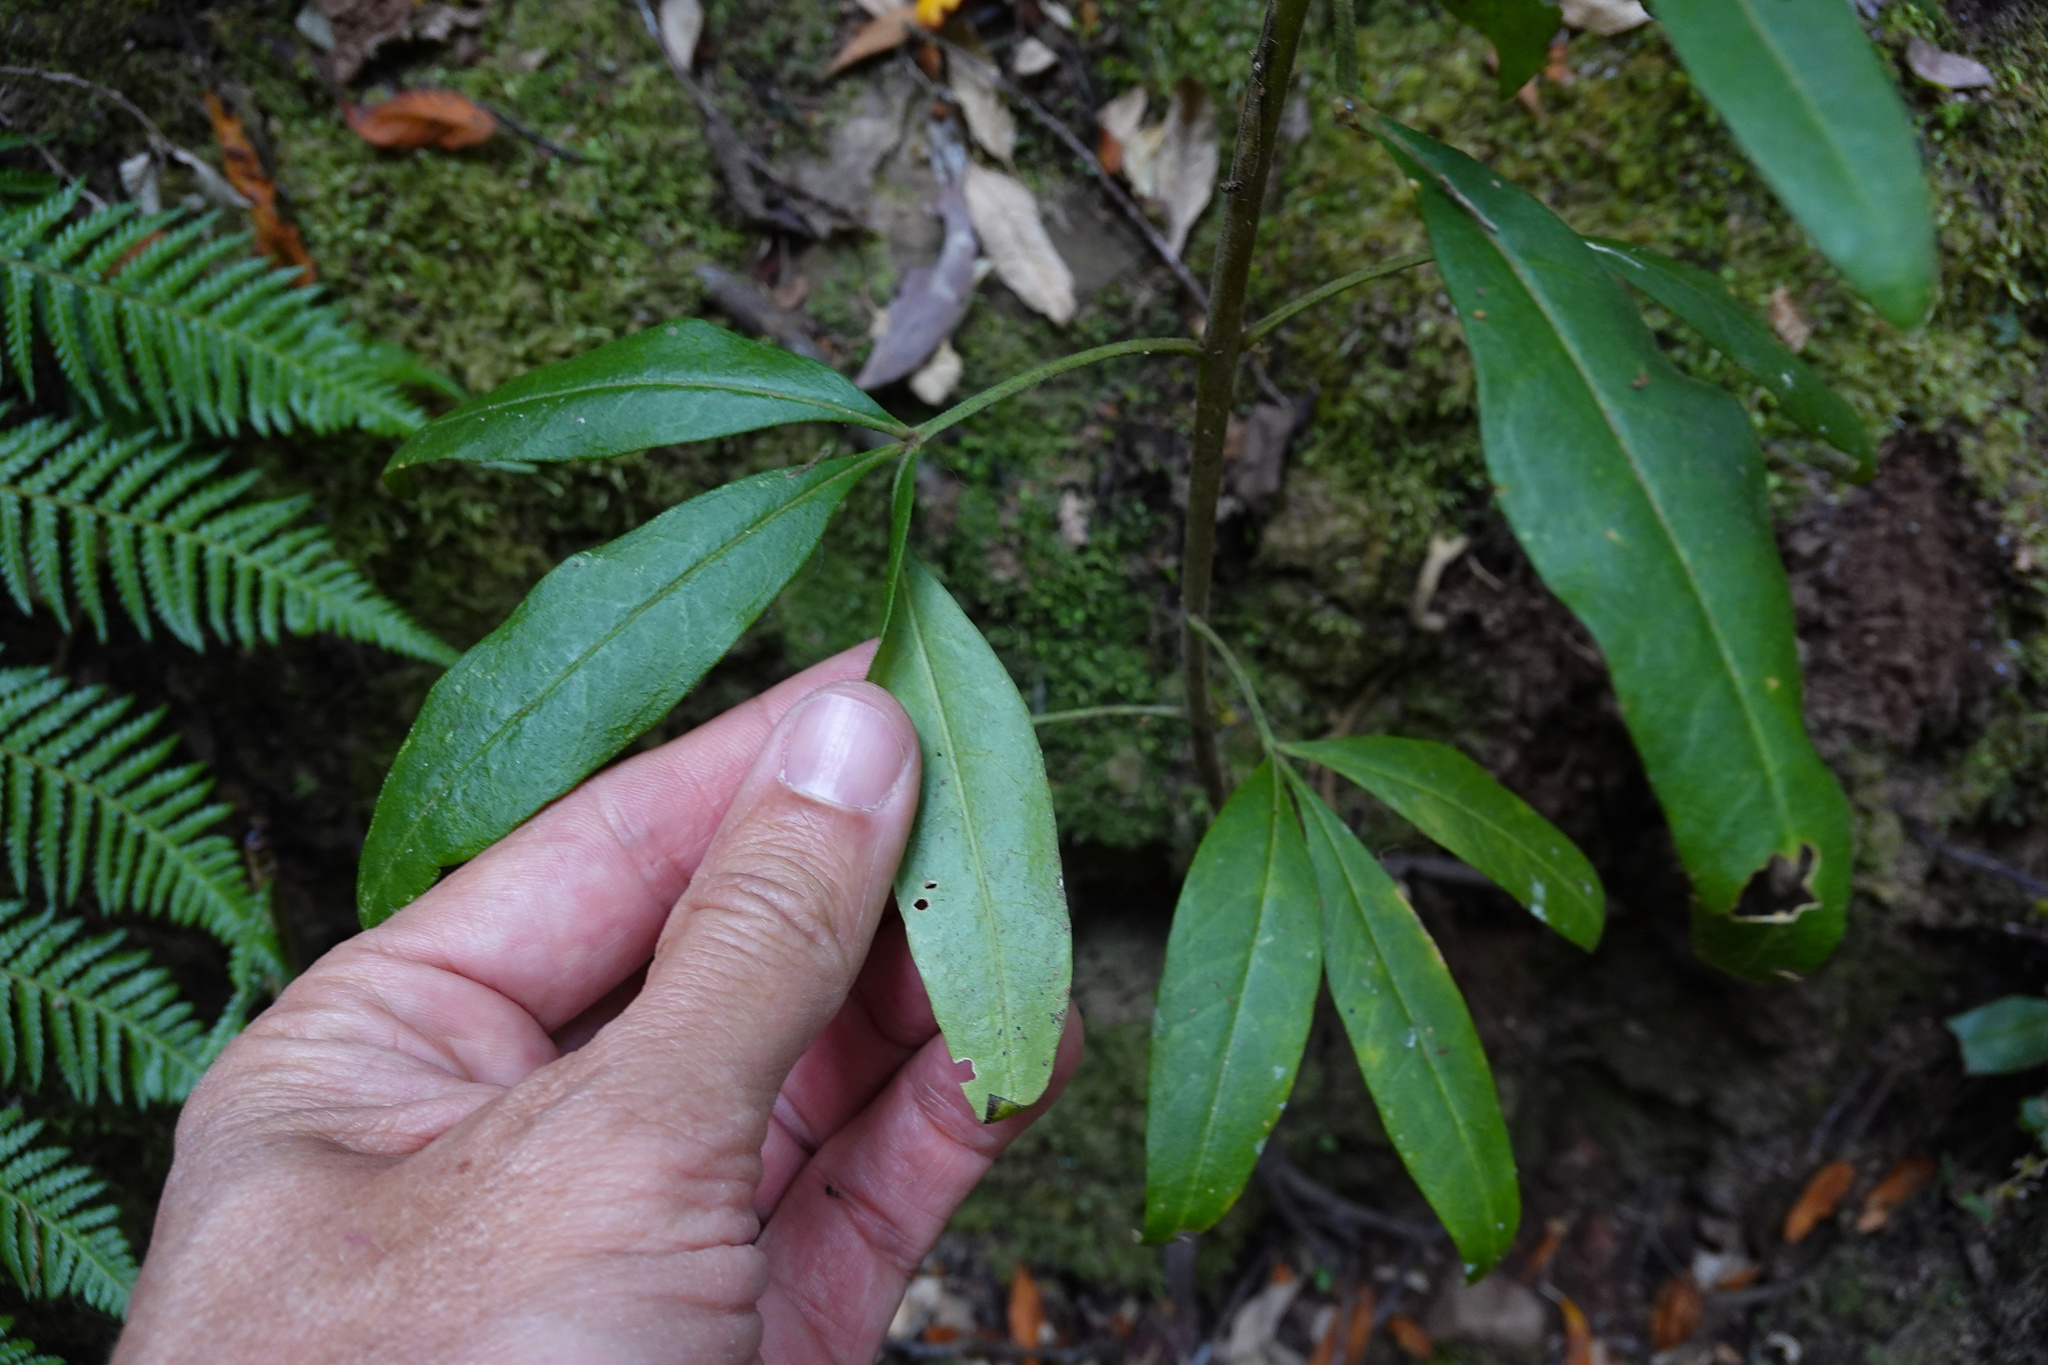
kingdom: Plantae
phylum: Tracheophyta
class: Magnoliopsida
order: Sapindales
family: Rutaceae
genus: Zieria
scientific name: Zieria arborescens
